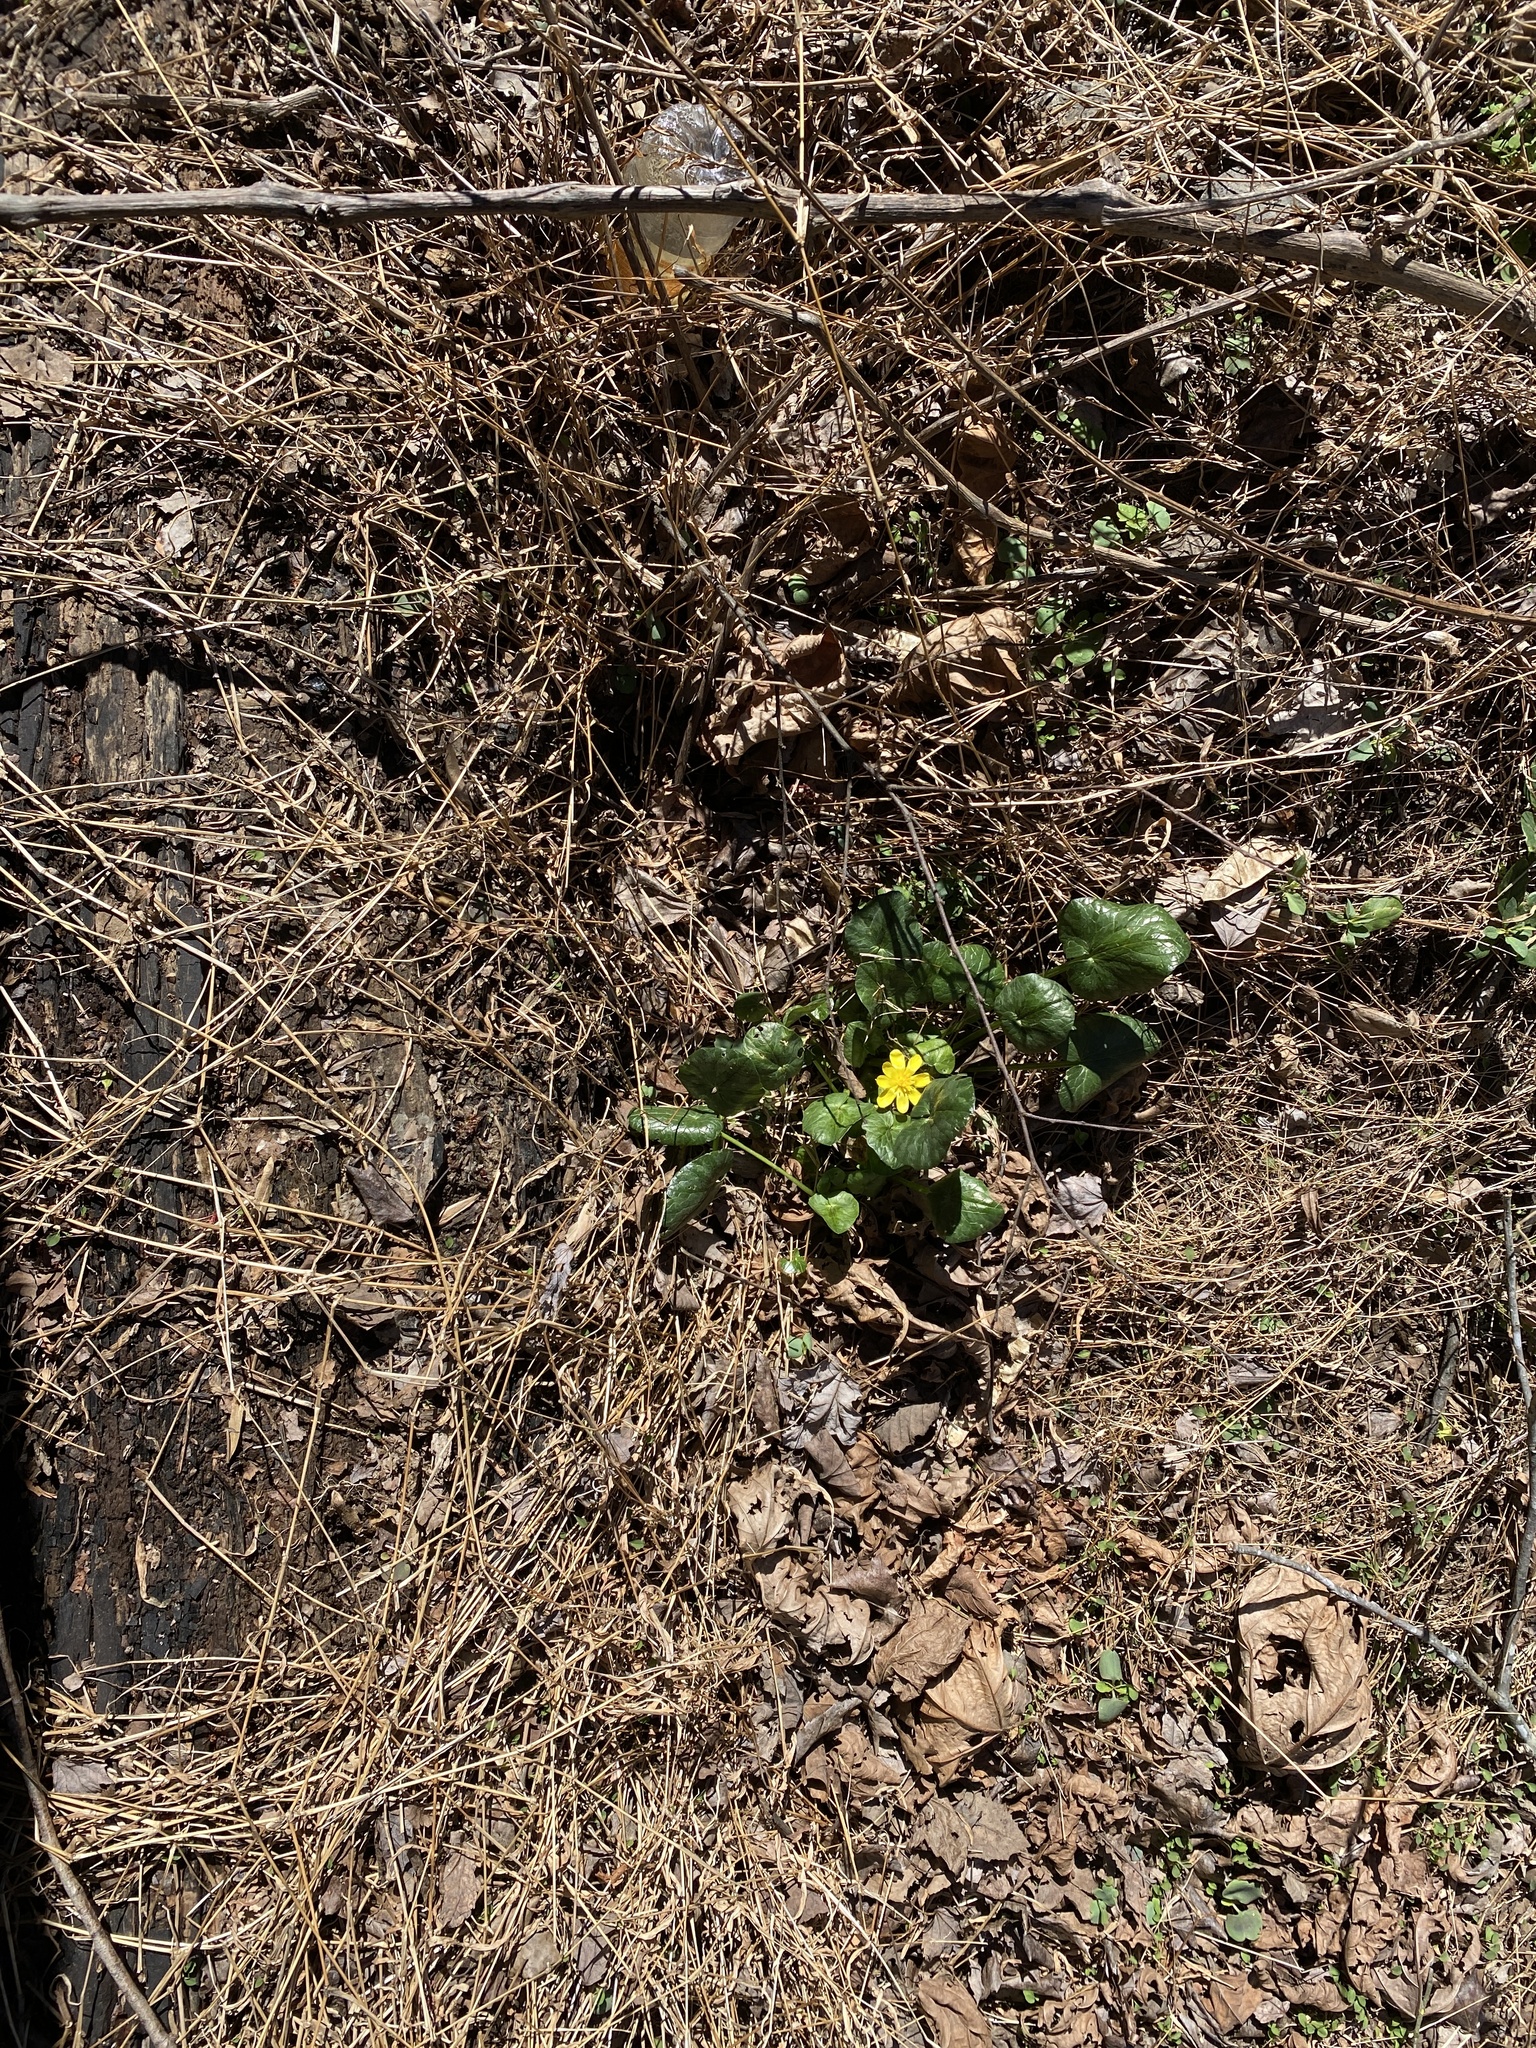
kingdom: Plantae
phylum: Tracheophyta
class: Magnoliopsida
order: Ranunculales
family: Ranunculaceae
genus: Ficaria
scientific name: Ficaria verna
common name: Lesser celandine
